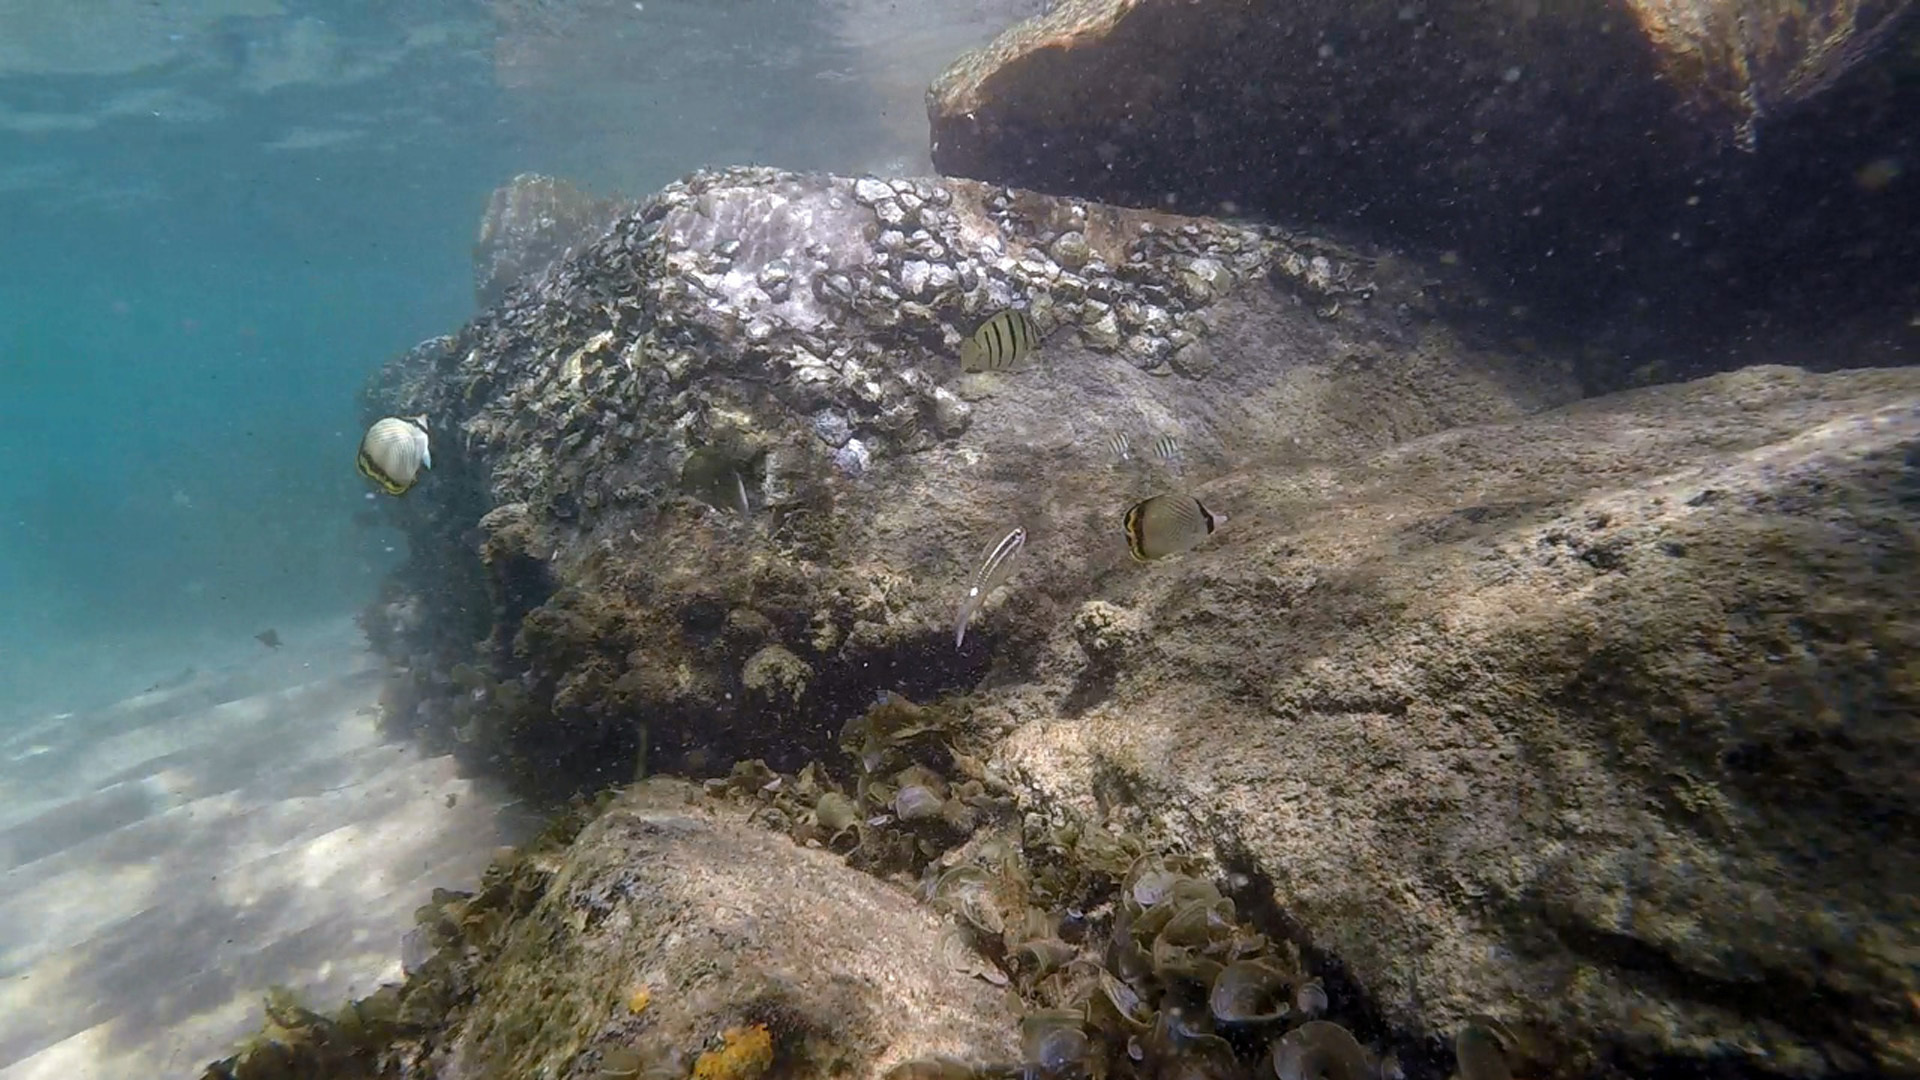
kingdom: Animalia
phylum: Chordata
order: Perciformes
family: Chaetodontidae
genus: Chaetodon
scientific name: Chaetodon vagabundus
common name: Vagabond butterflyfish
